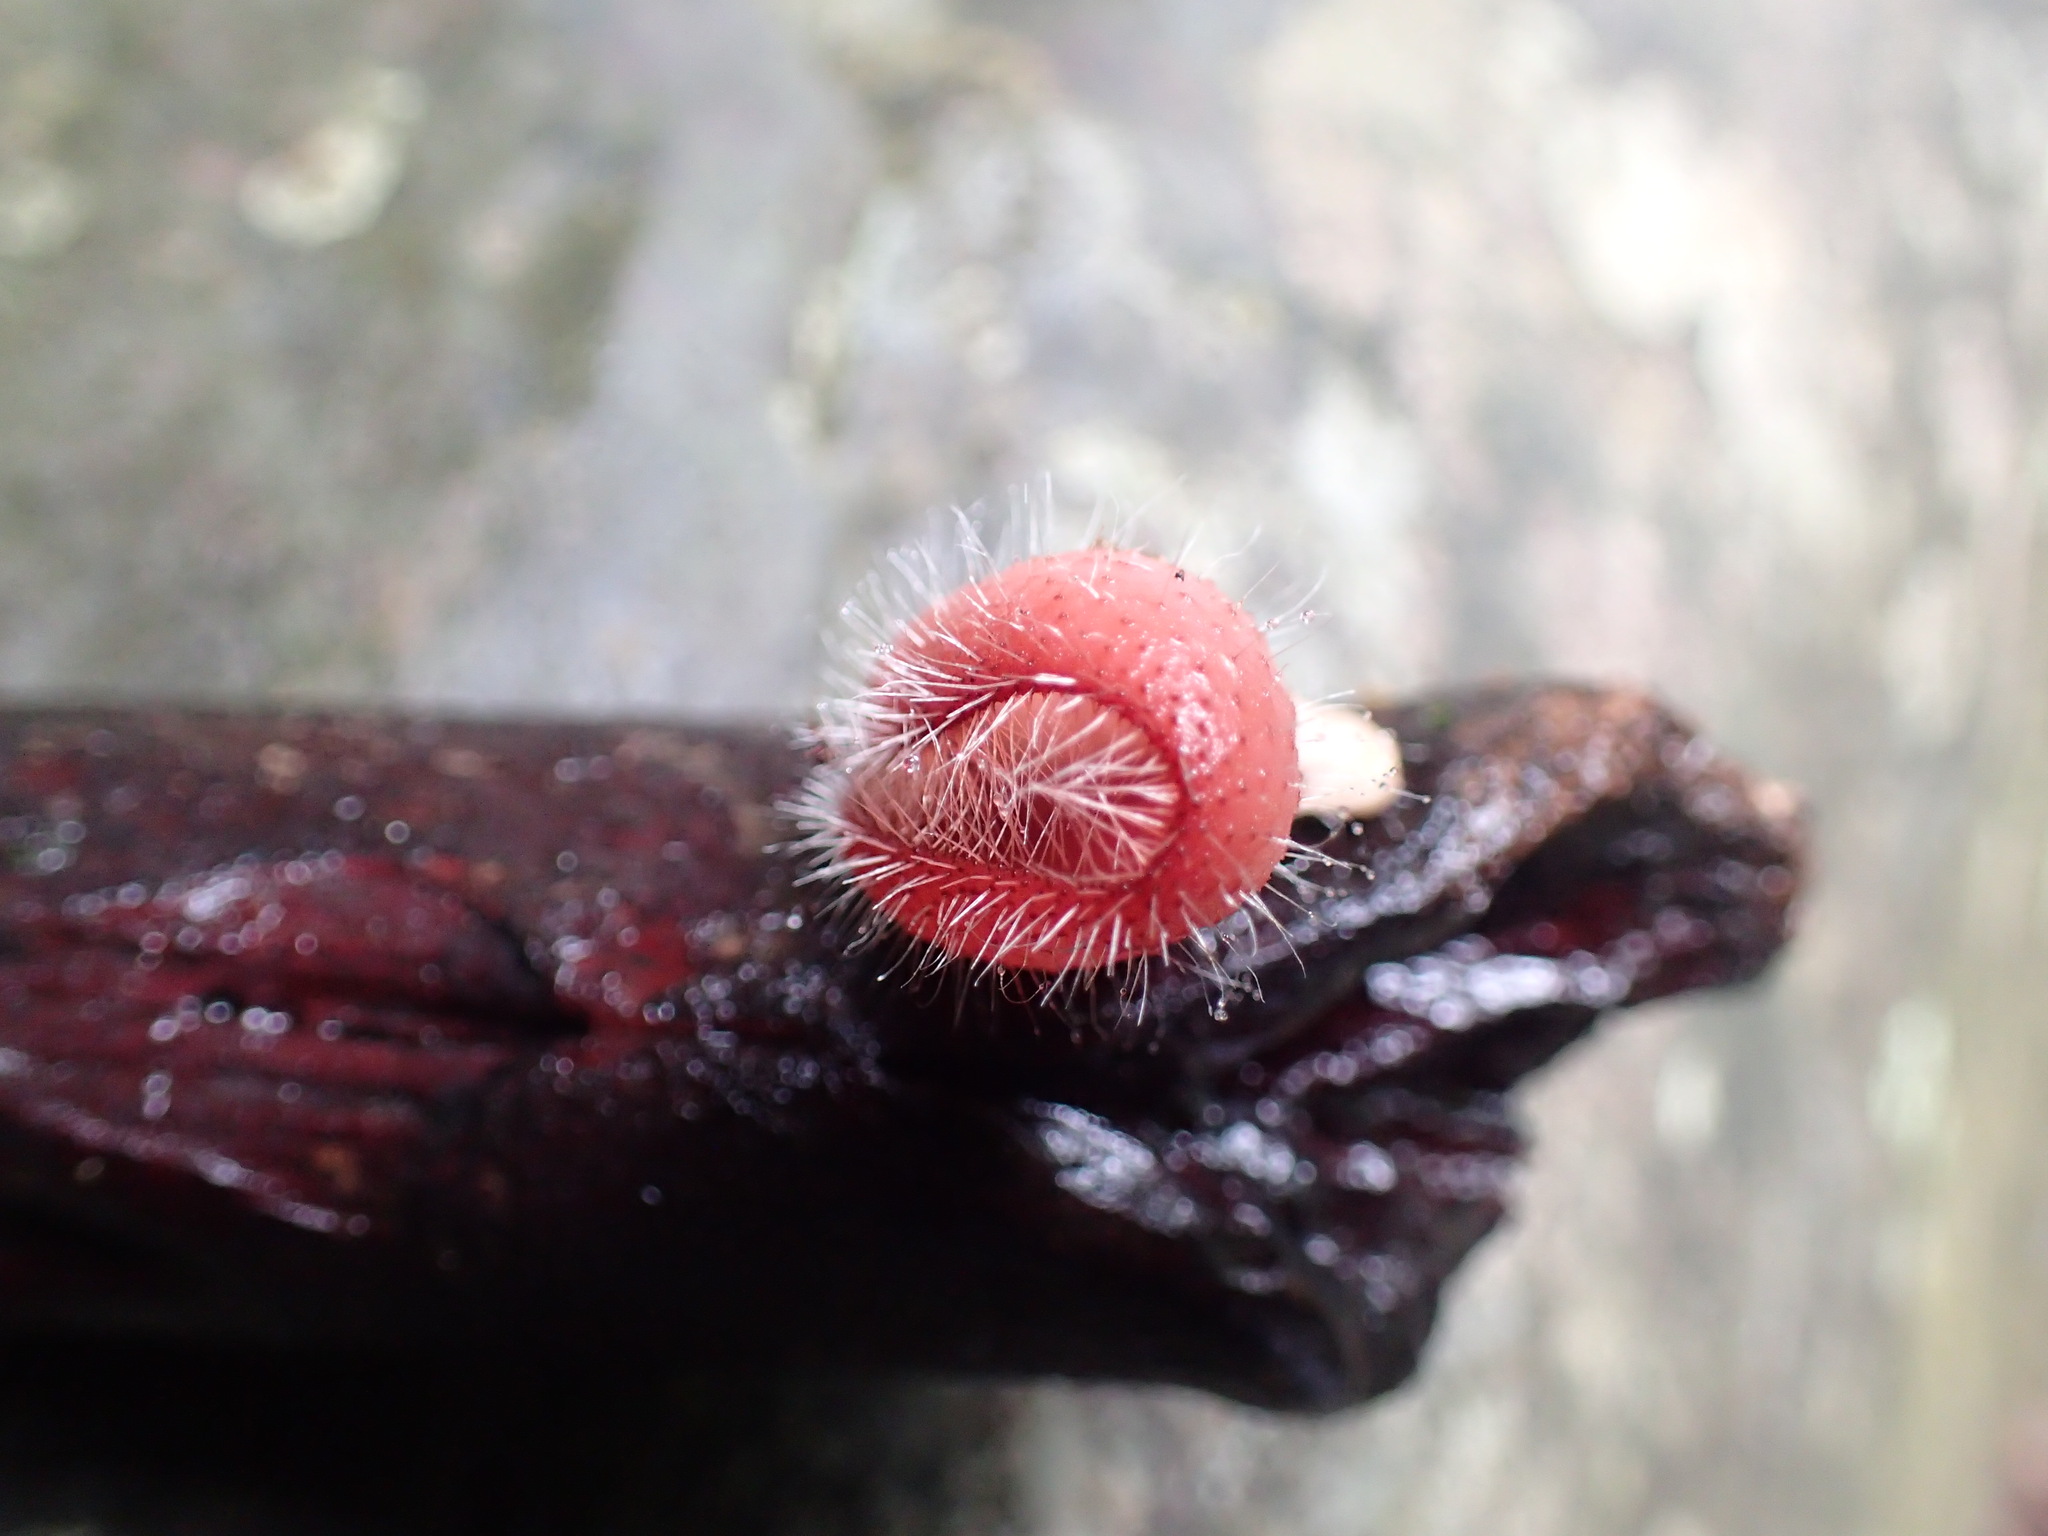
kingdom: Fungi
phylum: Ascomycota
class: Pezizomycetes
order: Pezizales
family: Sarcoscyphaceae
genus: Cookeina
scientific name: Cookeina tricholoma
